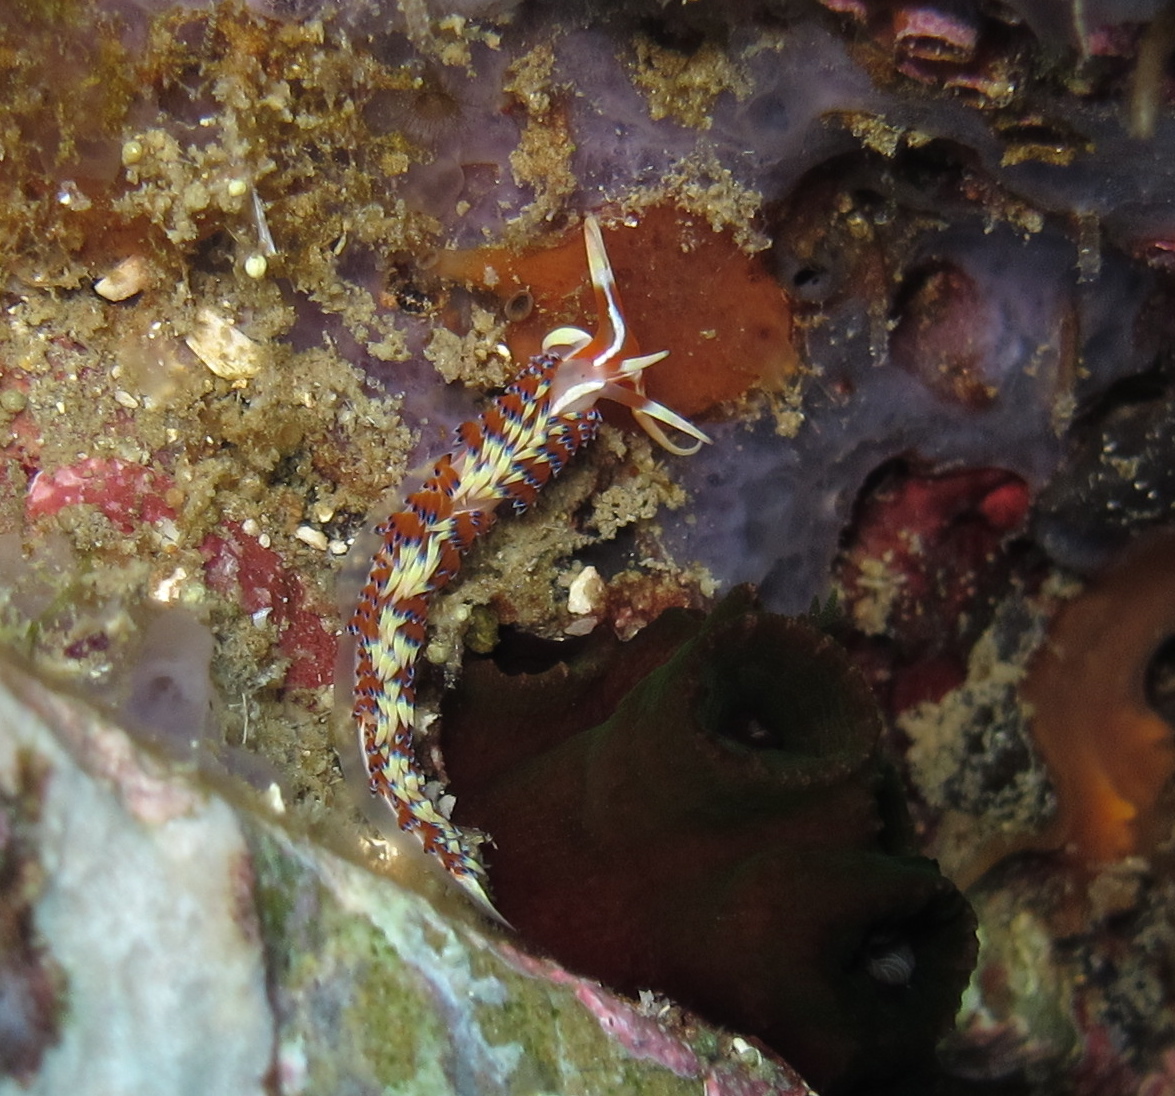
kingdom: Animalia
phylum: Mollusca
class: Gastropoda
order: Nudibranchia
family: Facelinidae
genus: Caloria
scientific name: Caloria indica
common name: Sea slug
